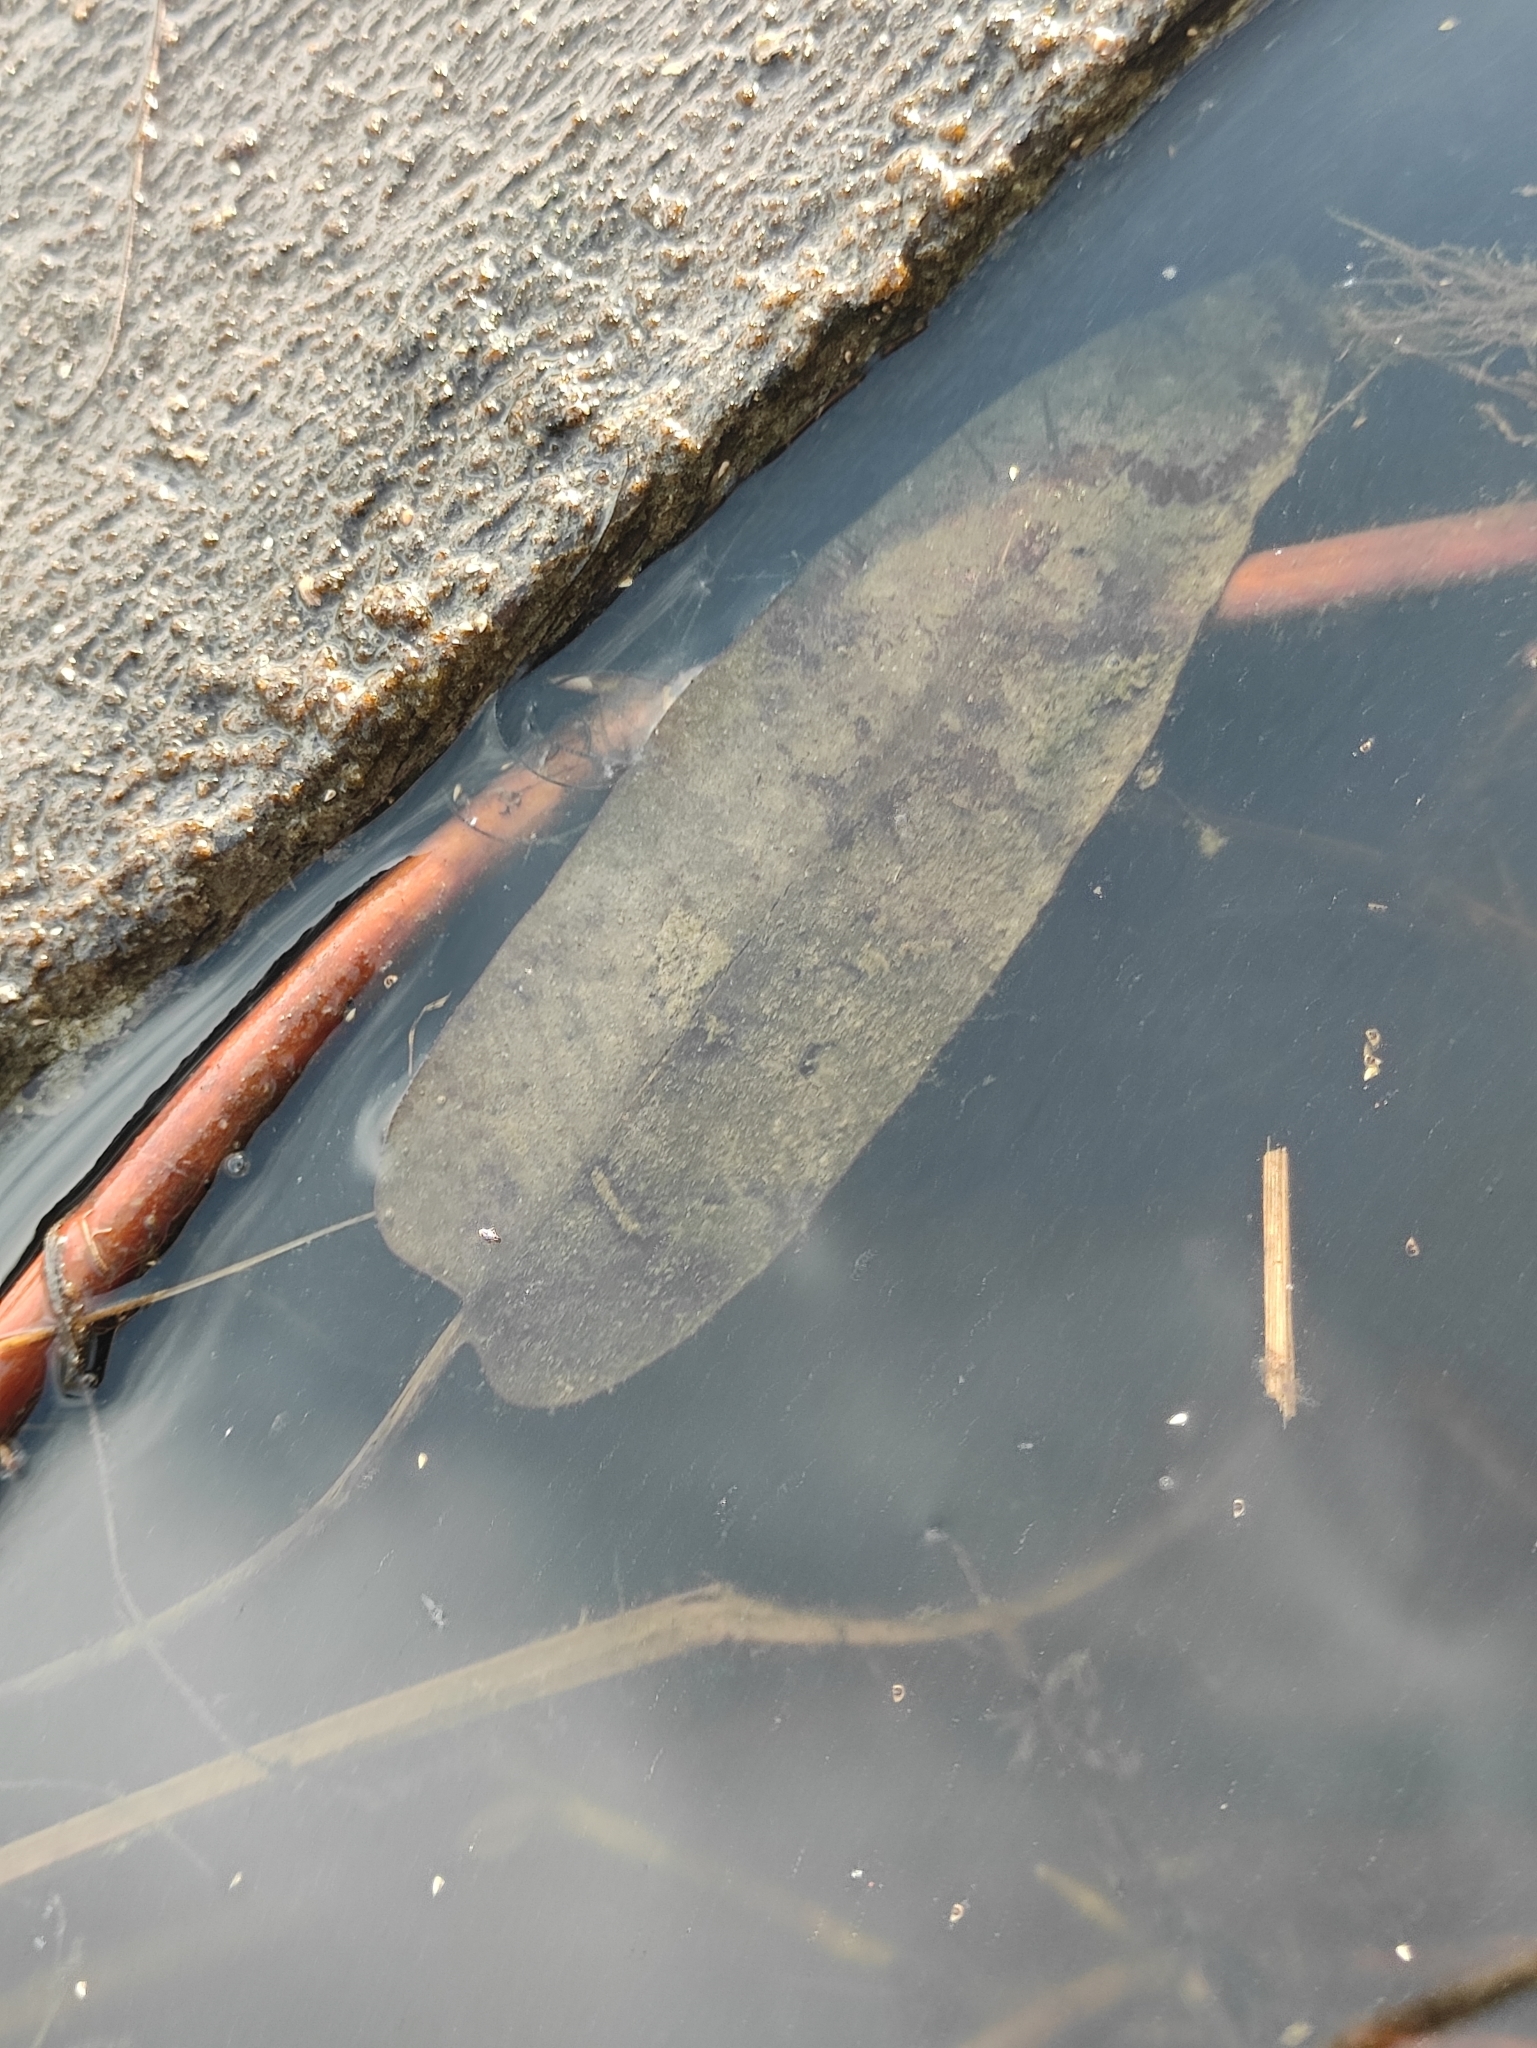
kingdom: Plantae
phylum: Tracheophyta
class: Magnoliopsida
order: Caryophyllales
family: Polygonaceae
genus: Persicaria
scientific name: Persicaria amphibia
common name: Amphibious bistort
